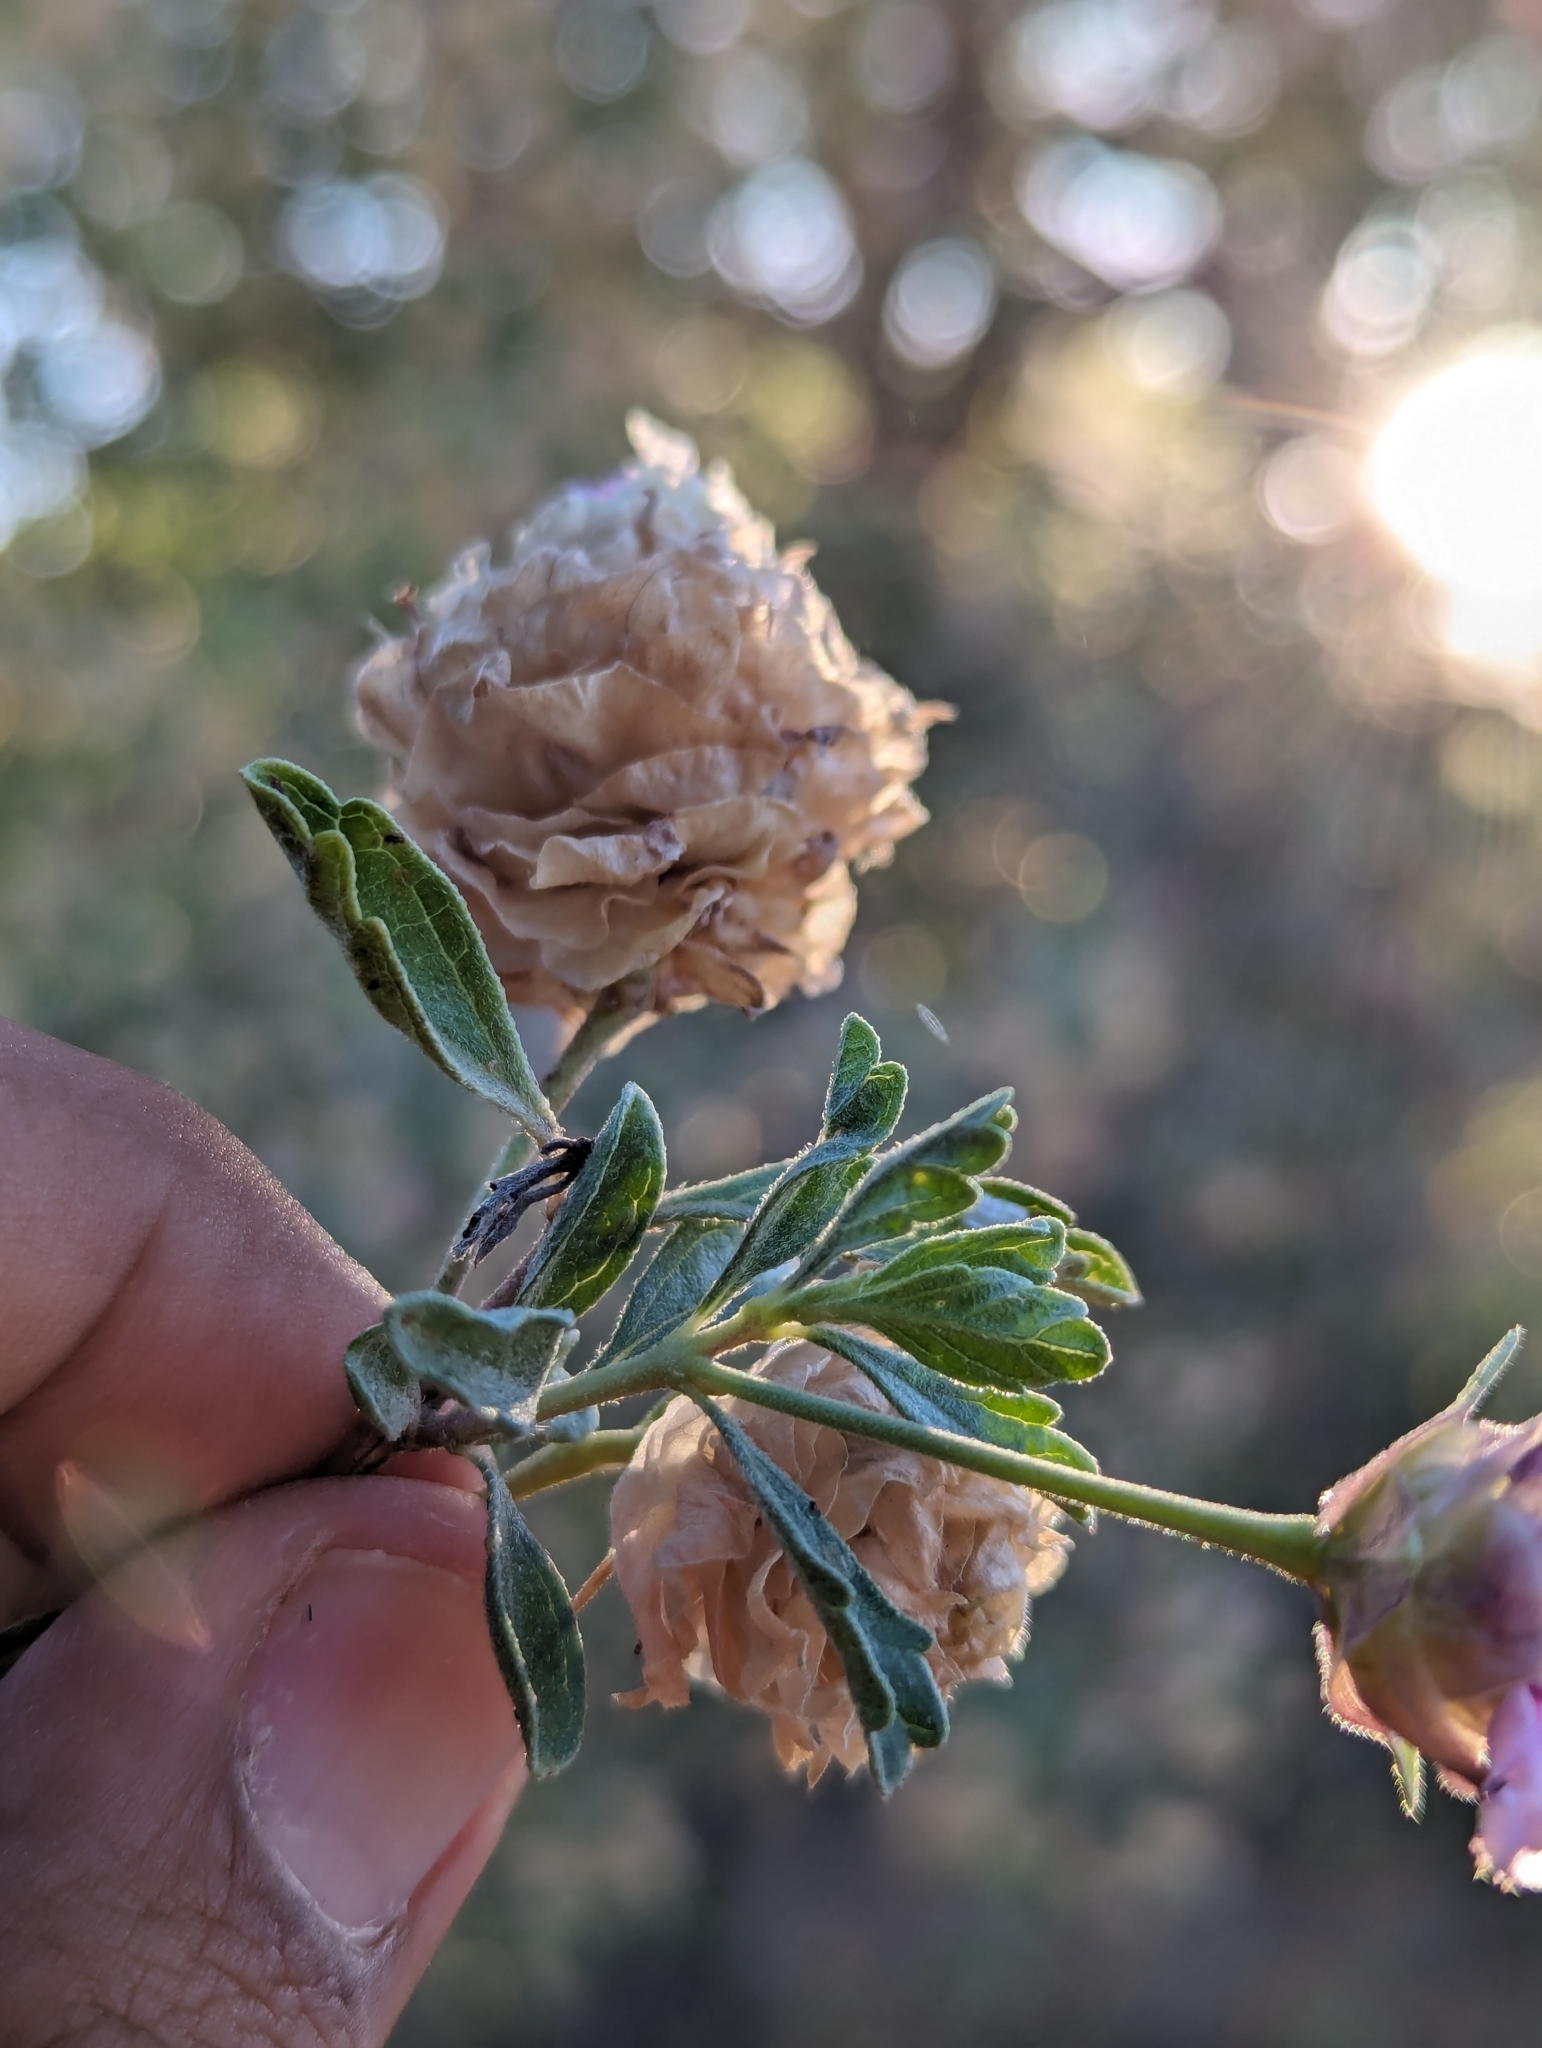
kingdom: Plantae
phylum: Tracheophyta
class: Magnoliopsida
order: Lamiales
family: Verbenaceae
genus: Lippia
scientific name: Lippia formosa
